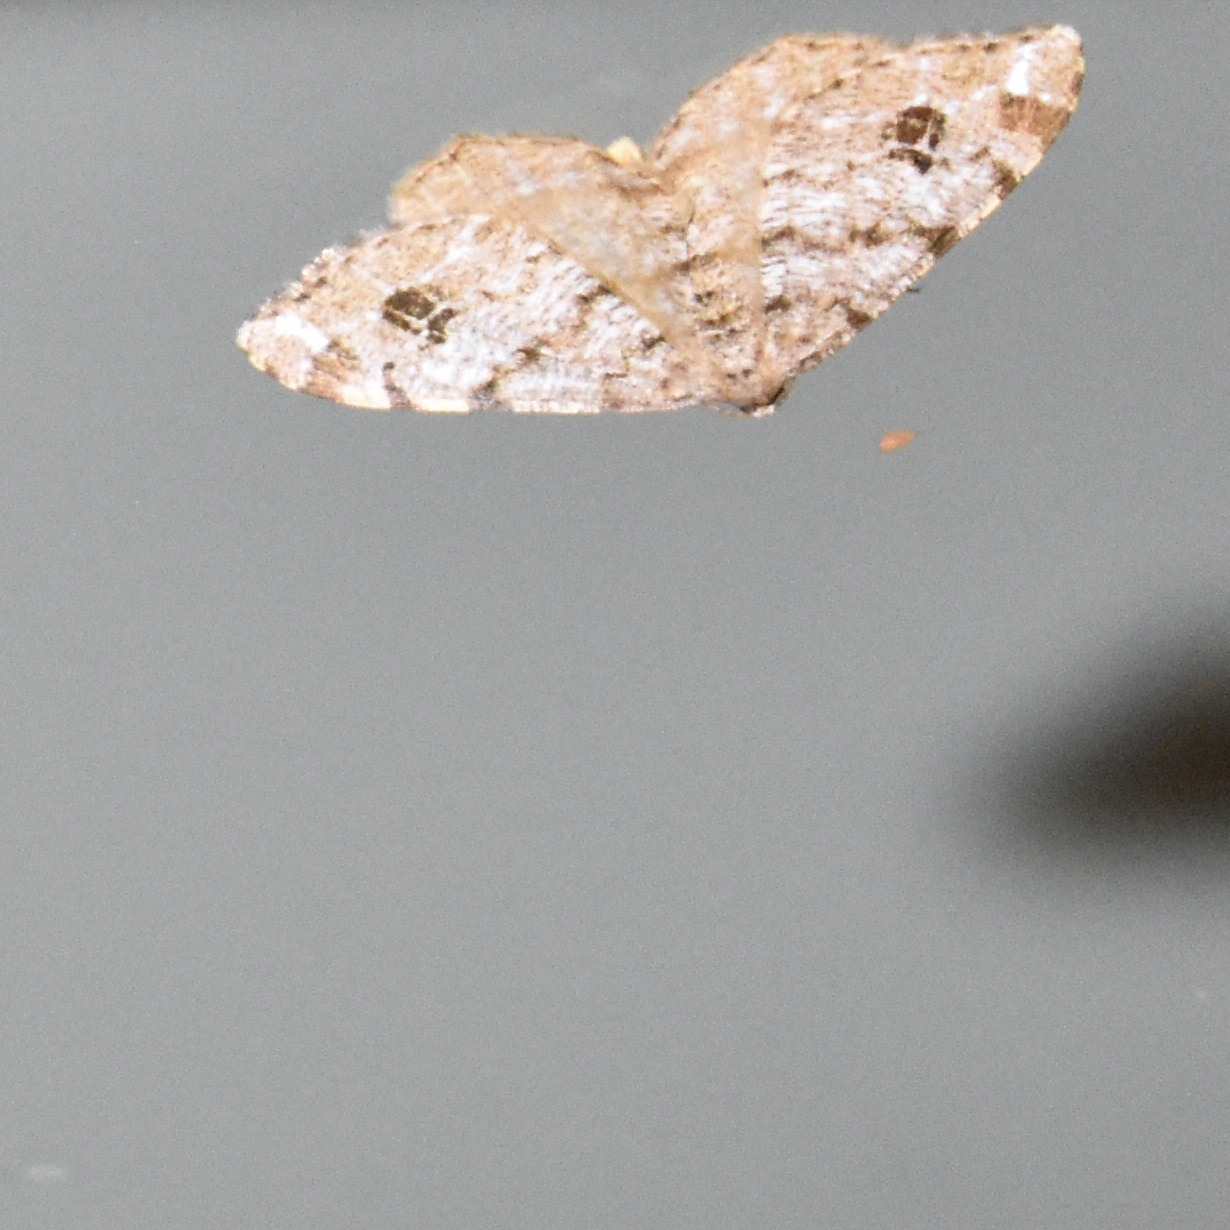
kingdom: Animalia
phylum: Arthropoda
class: Insecta
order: Lepidoptera
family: Geometridae
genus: Macaria
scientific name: Macaria signaria
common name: Dusky peacock
